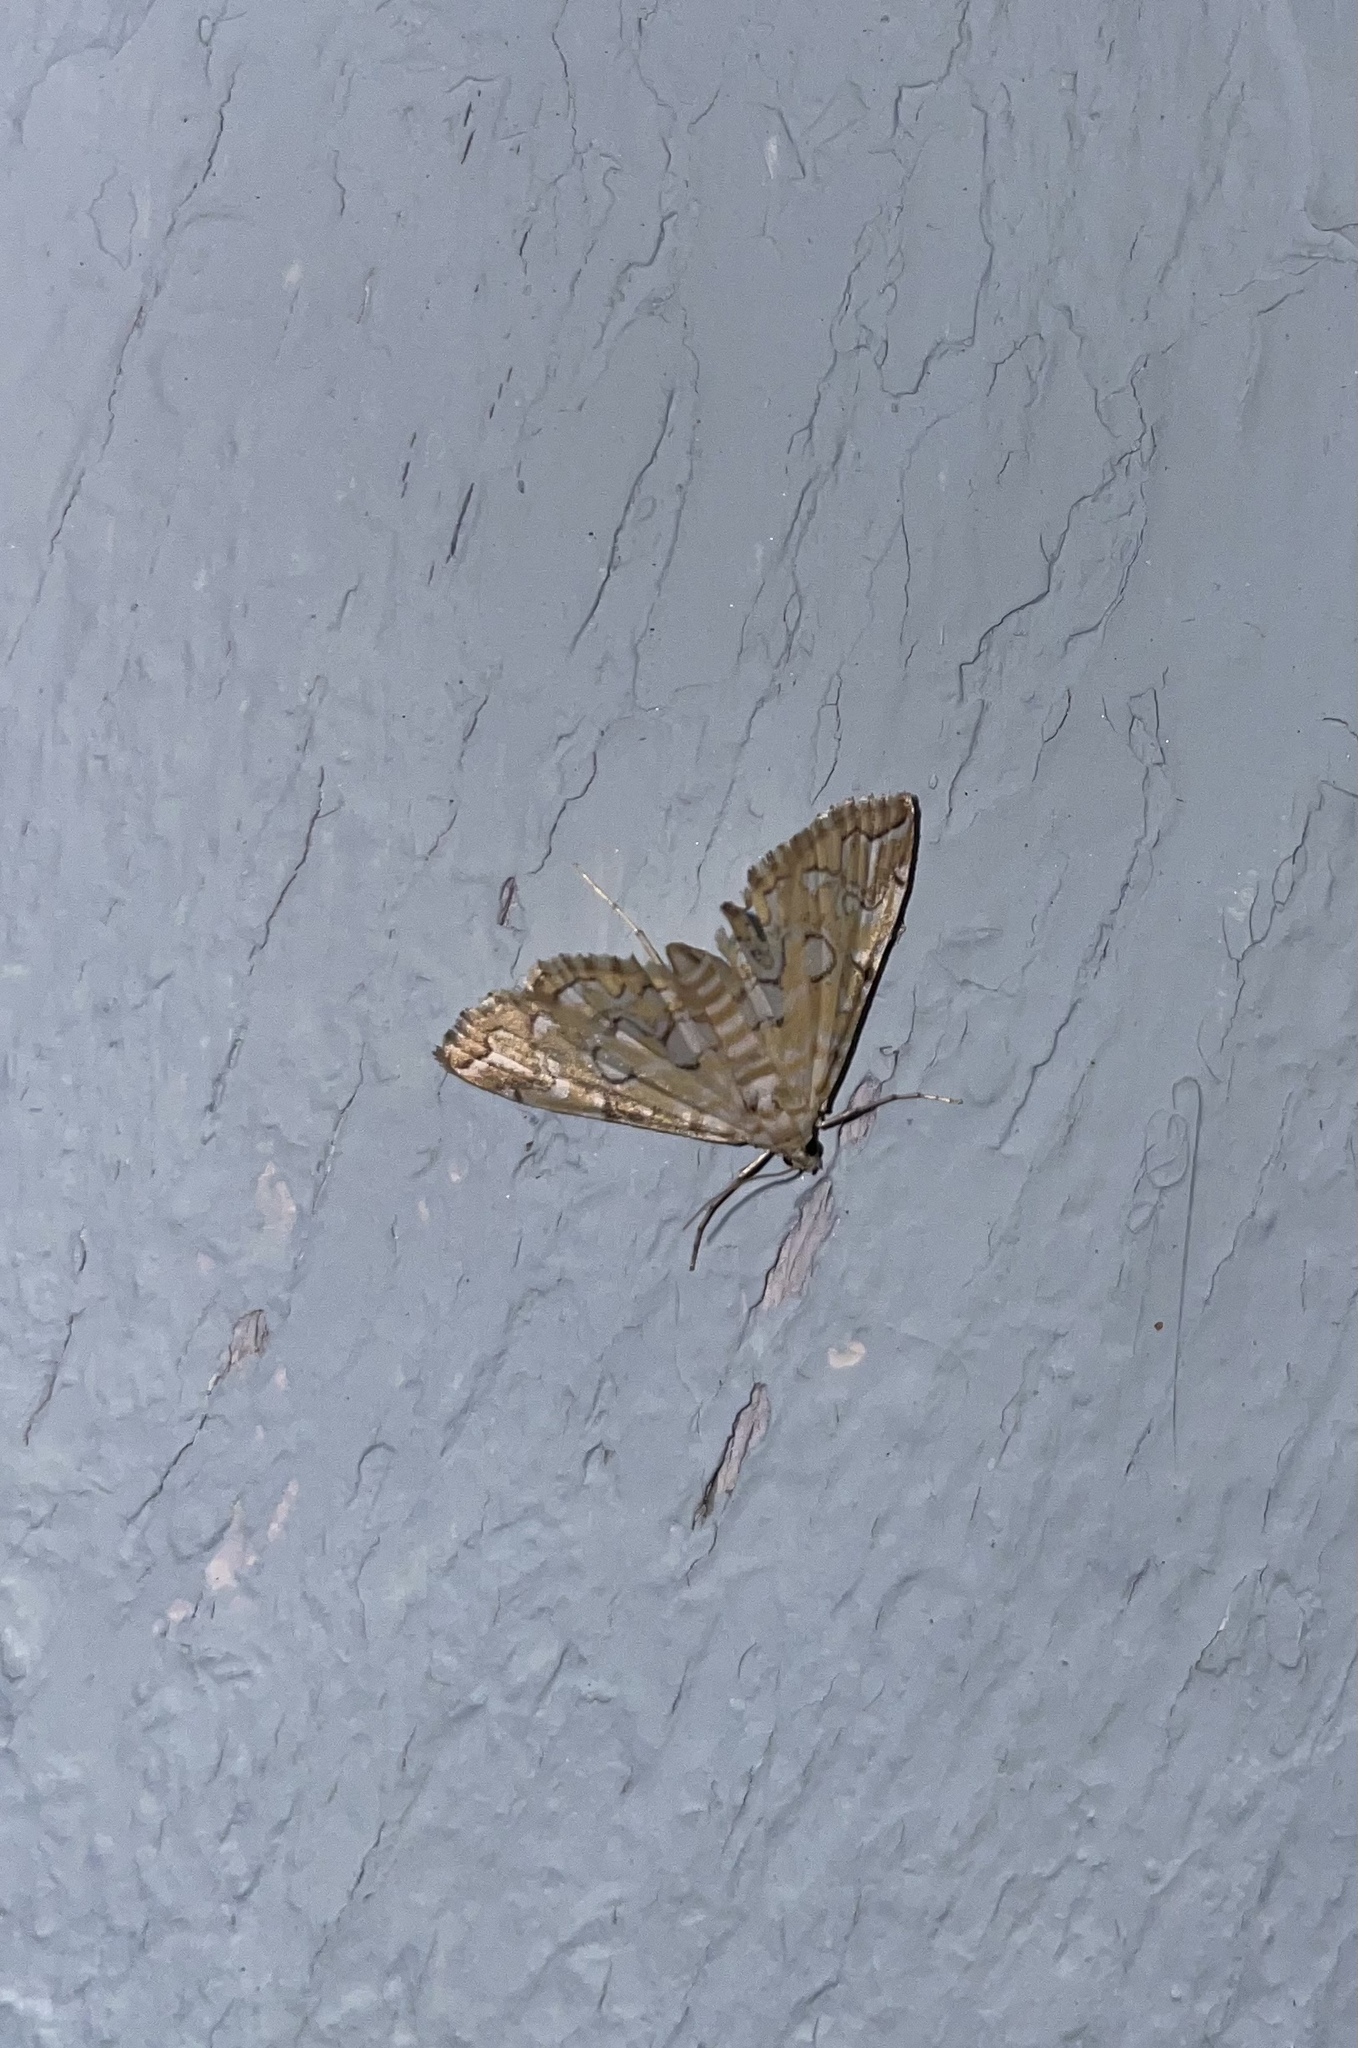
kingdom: Animalia
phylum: Arthropoda
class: Insecta
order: Lepidoptera
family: Crambidae
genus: Elophila
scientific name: Elophila icciusalis
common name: Pondside pyralid moth
